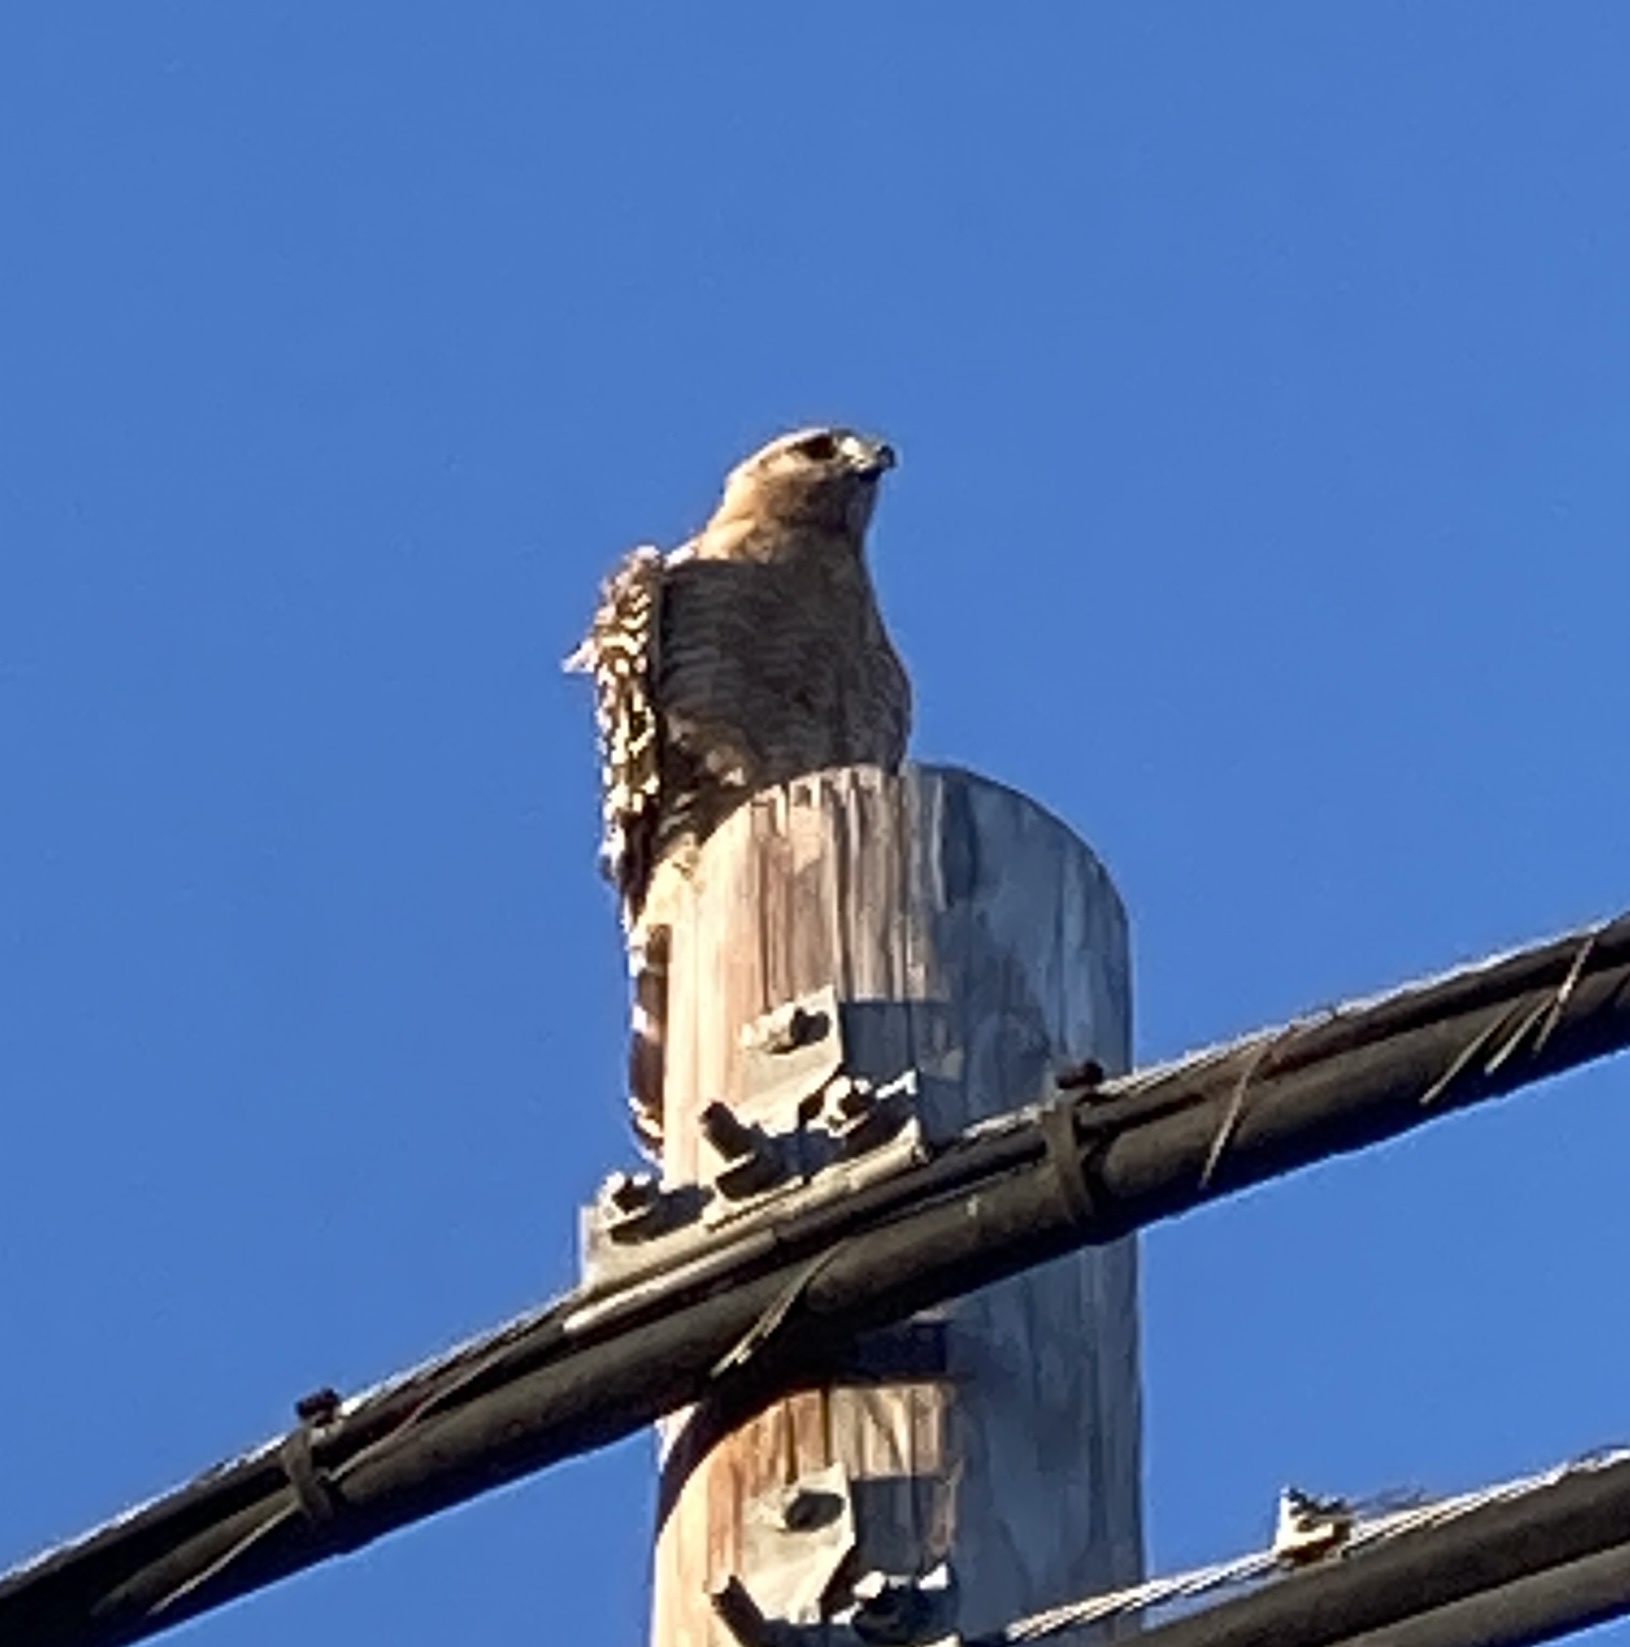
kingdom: Animalia
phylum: Chordata
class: Aves
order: Accipitriformes
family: Accipitridae
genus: Buteo
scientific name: Buteo lineatus
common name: Red-shouldered hawk
